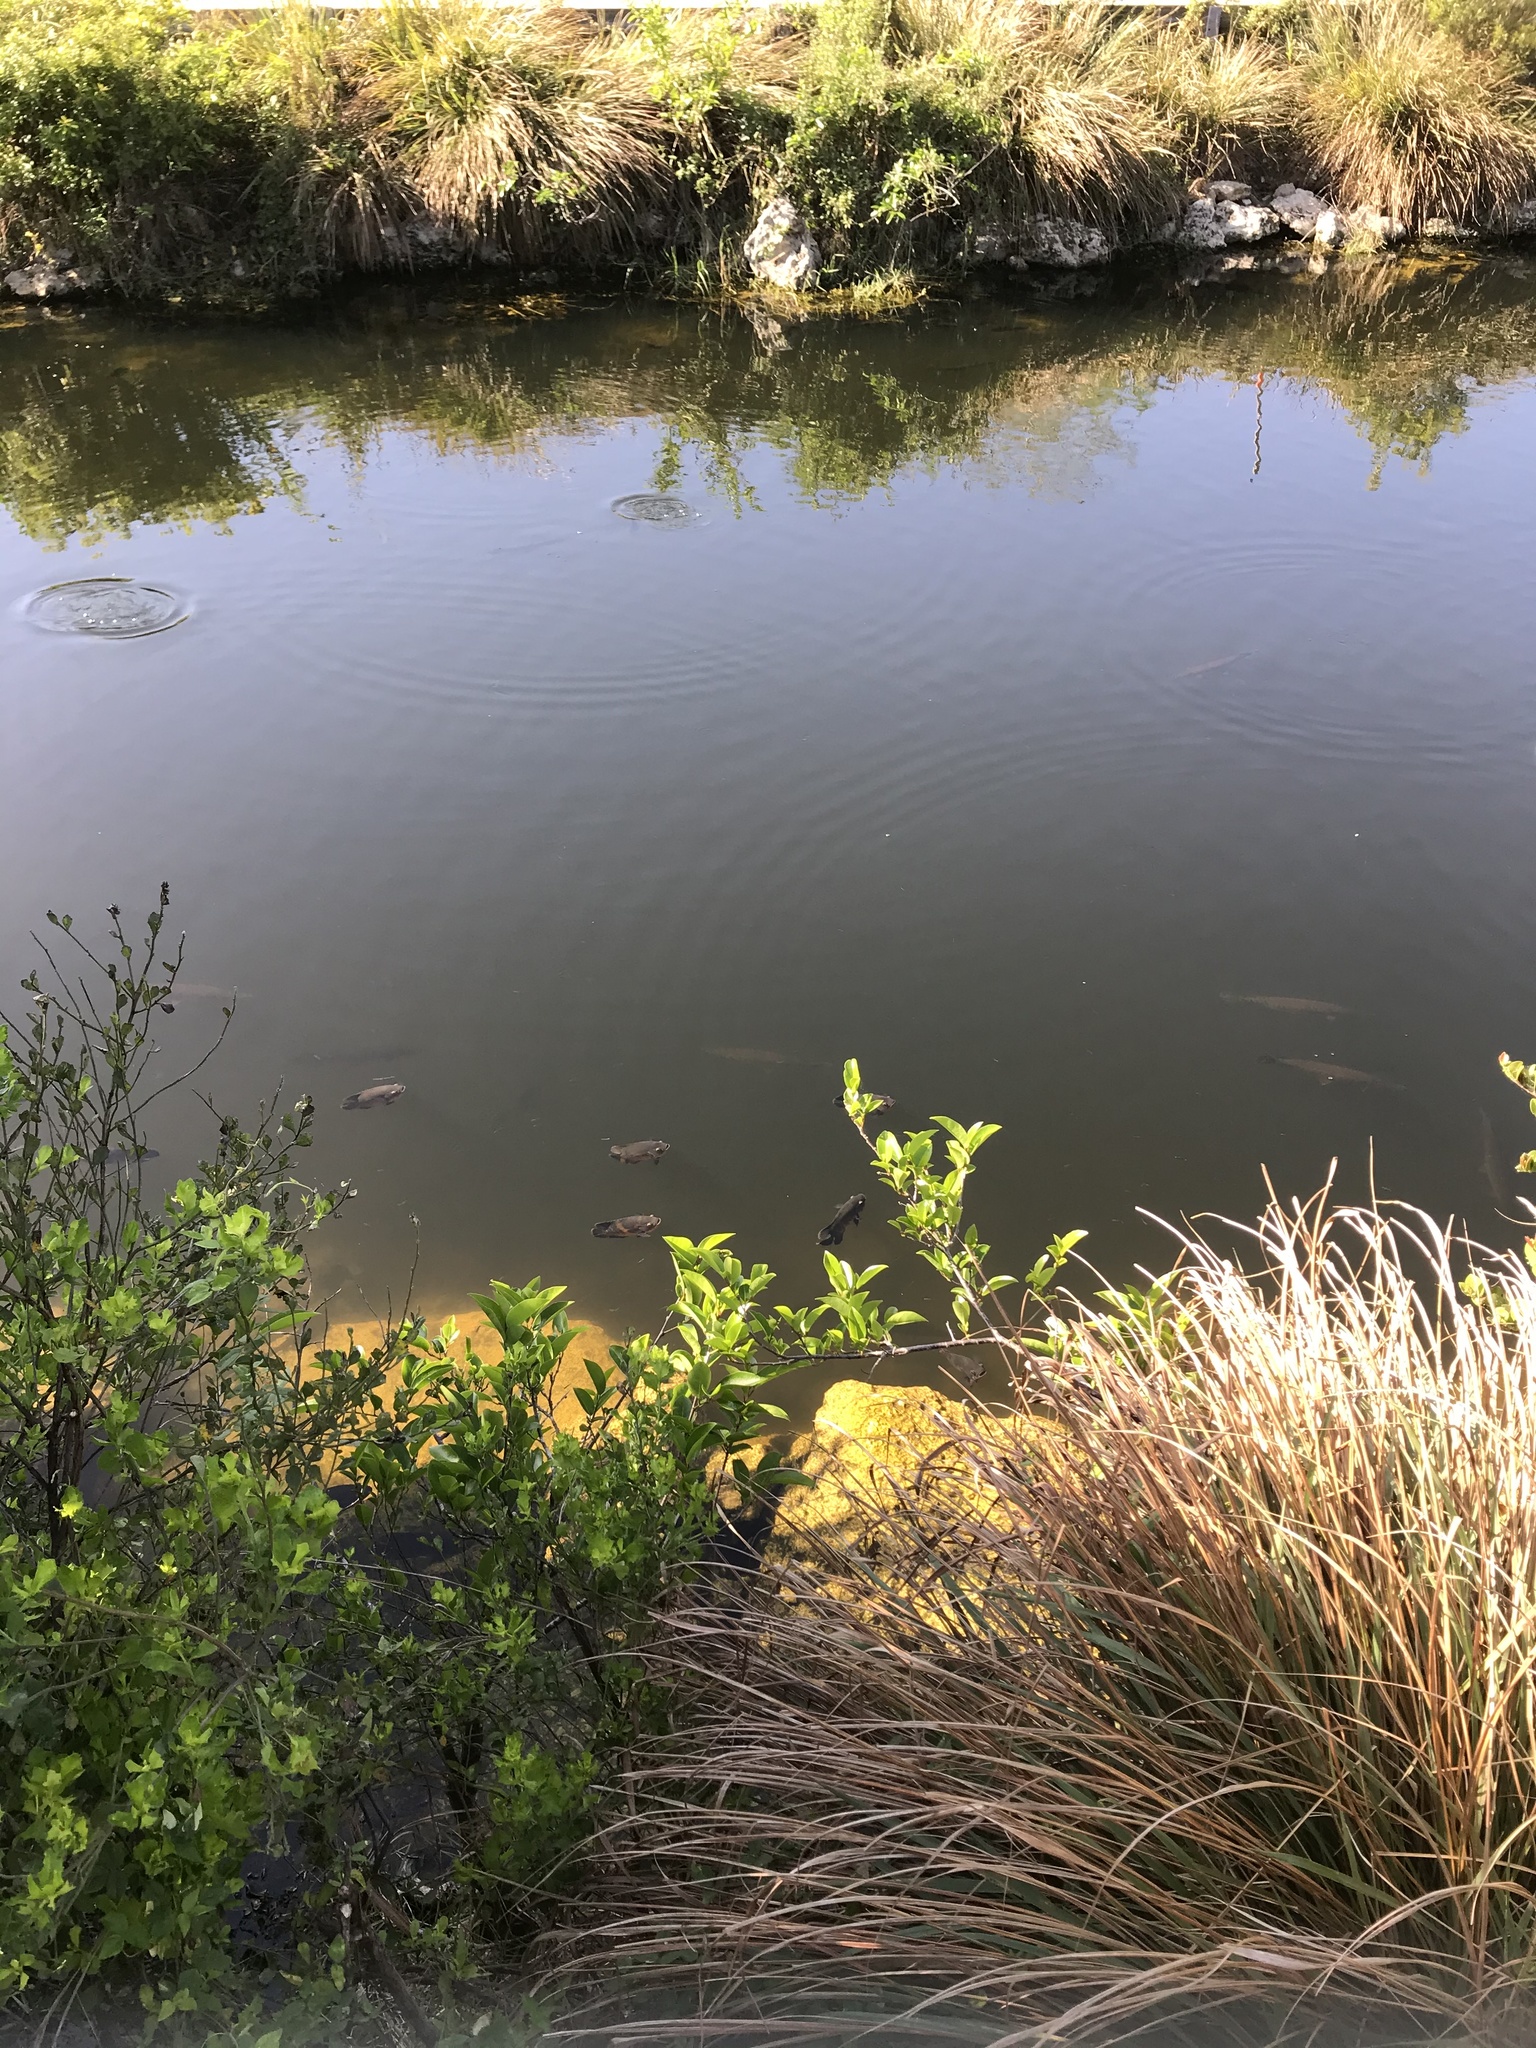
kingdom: Animalia
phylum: Chordata
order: Perciformes
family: Cichlidae
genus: Astronotus
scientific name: Astronotus ocellatus
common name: Oscar
